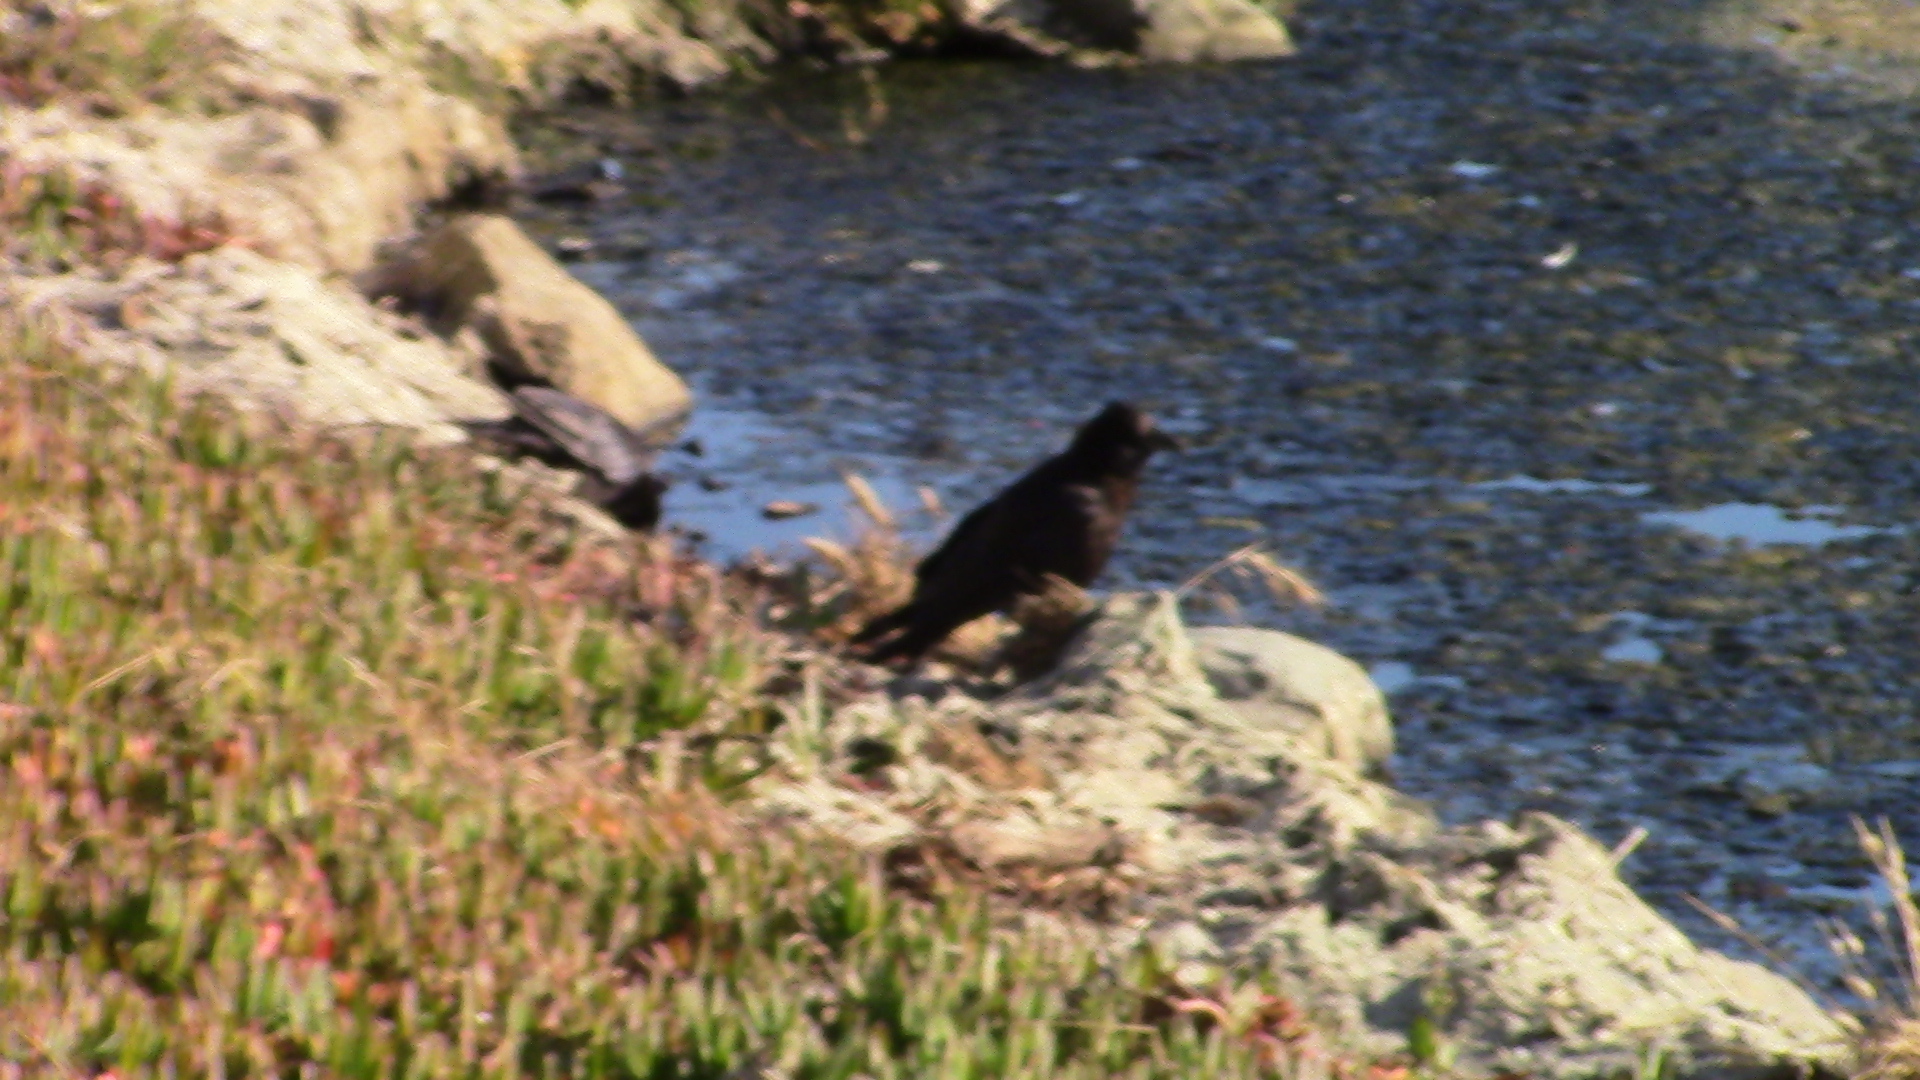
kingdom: Animalia
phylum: Chordata
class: Aves
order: Passeriformes
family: Corvidae
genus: Corvus
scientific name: Corvus brachyrhynchos
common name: American crow
